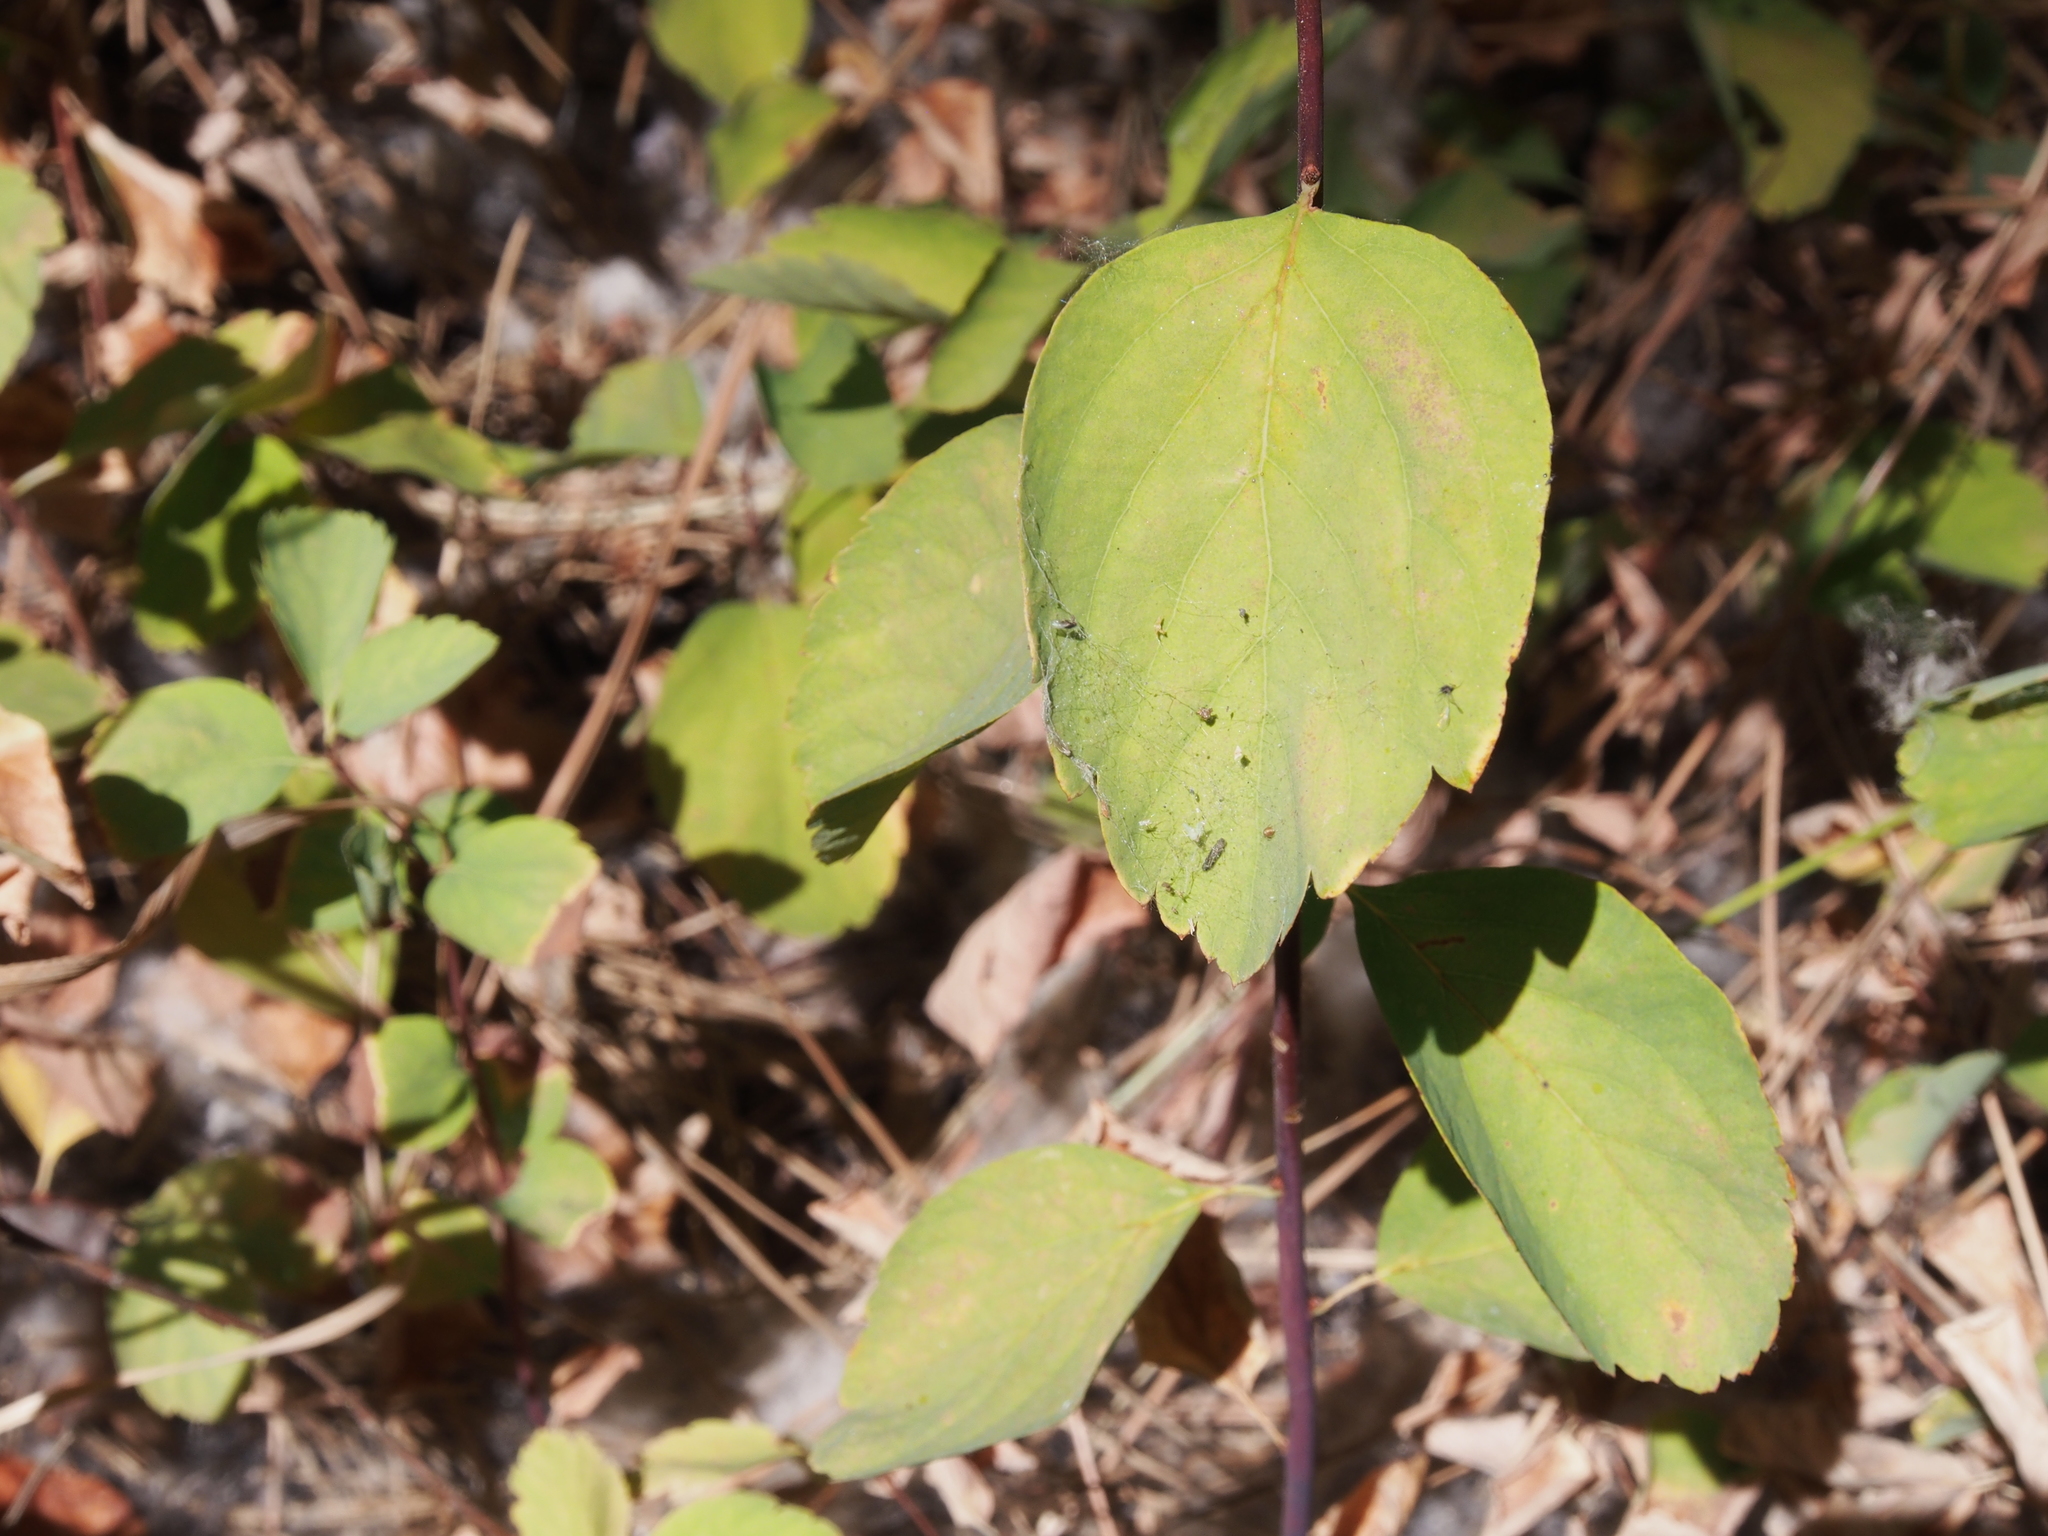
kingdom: Plantae
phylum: Tracheophyta
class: Magnoliopsida
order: Rosales
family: Rosaceae
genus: Spiraea
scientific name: Spiraea lucida
